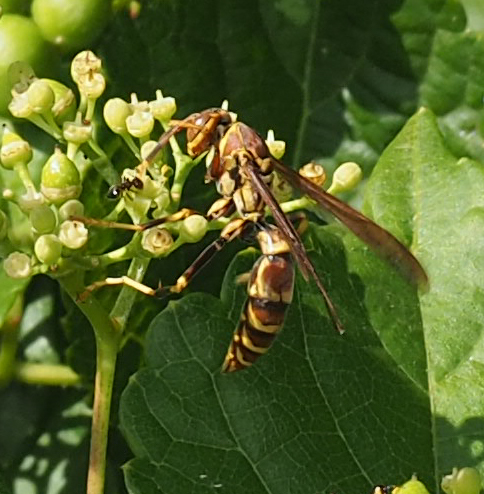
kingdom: Animalia
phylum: Arthropoda
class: Insecta
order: Hymenoptera
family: Eumenidae
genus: Polistes
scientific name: Polistes exclamans
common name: Paper wasp
